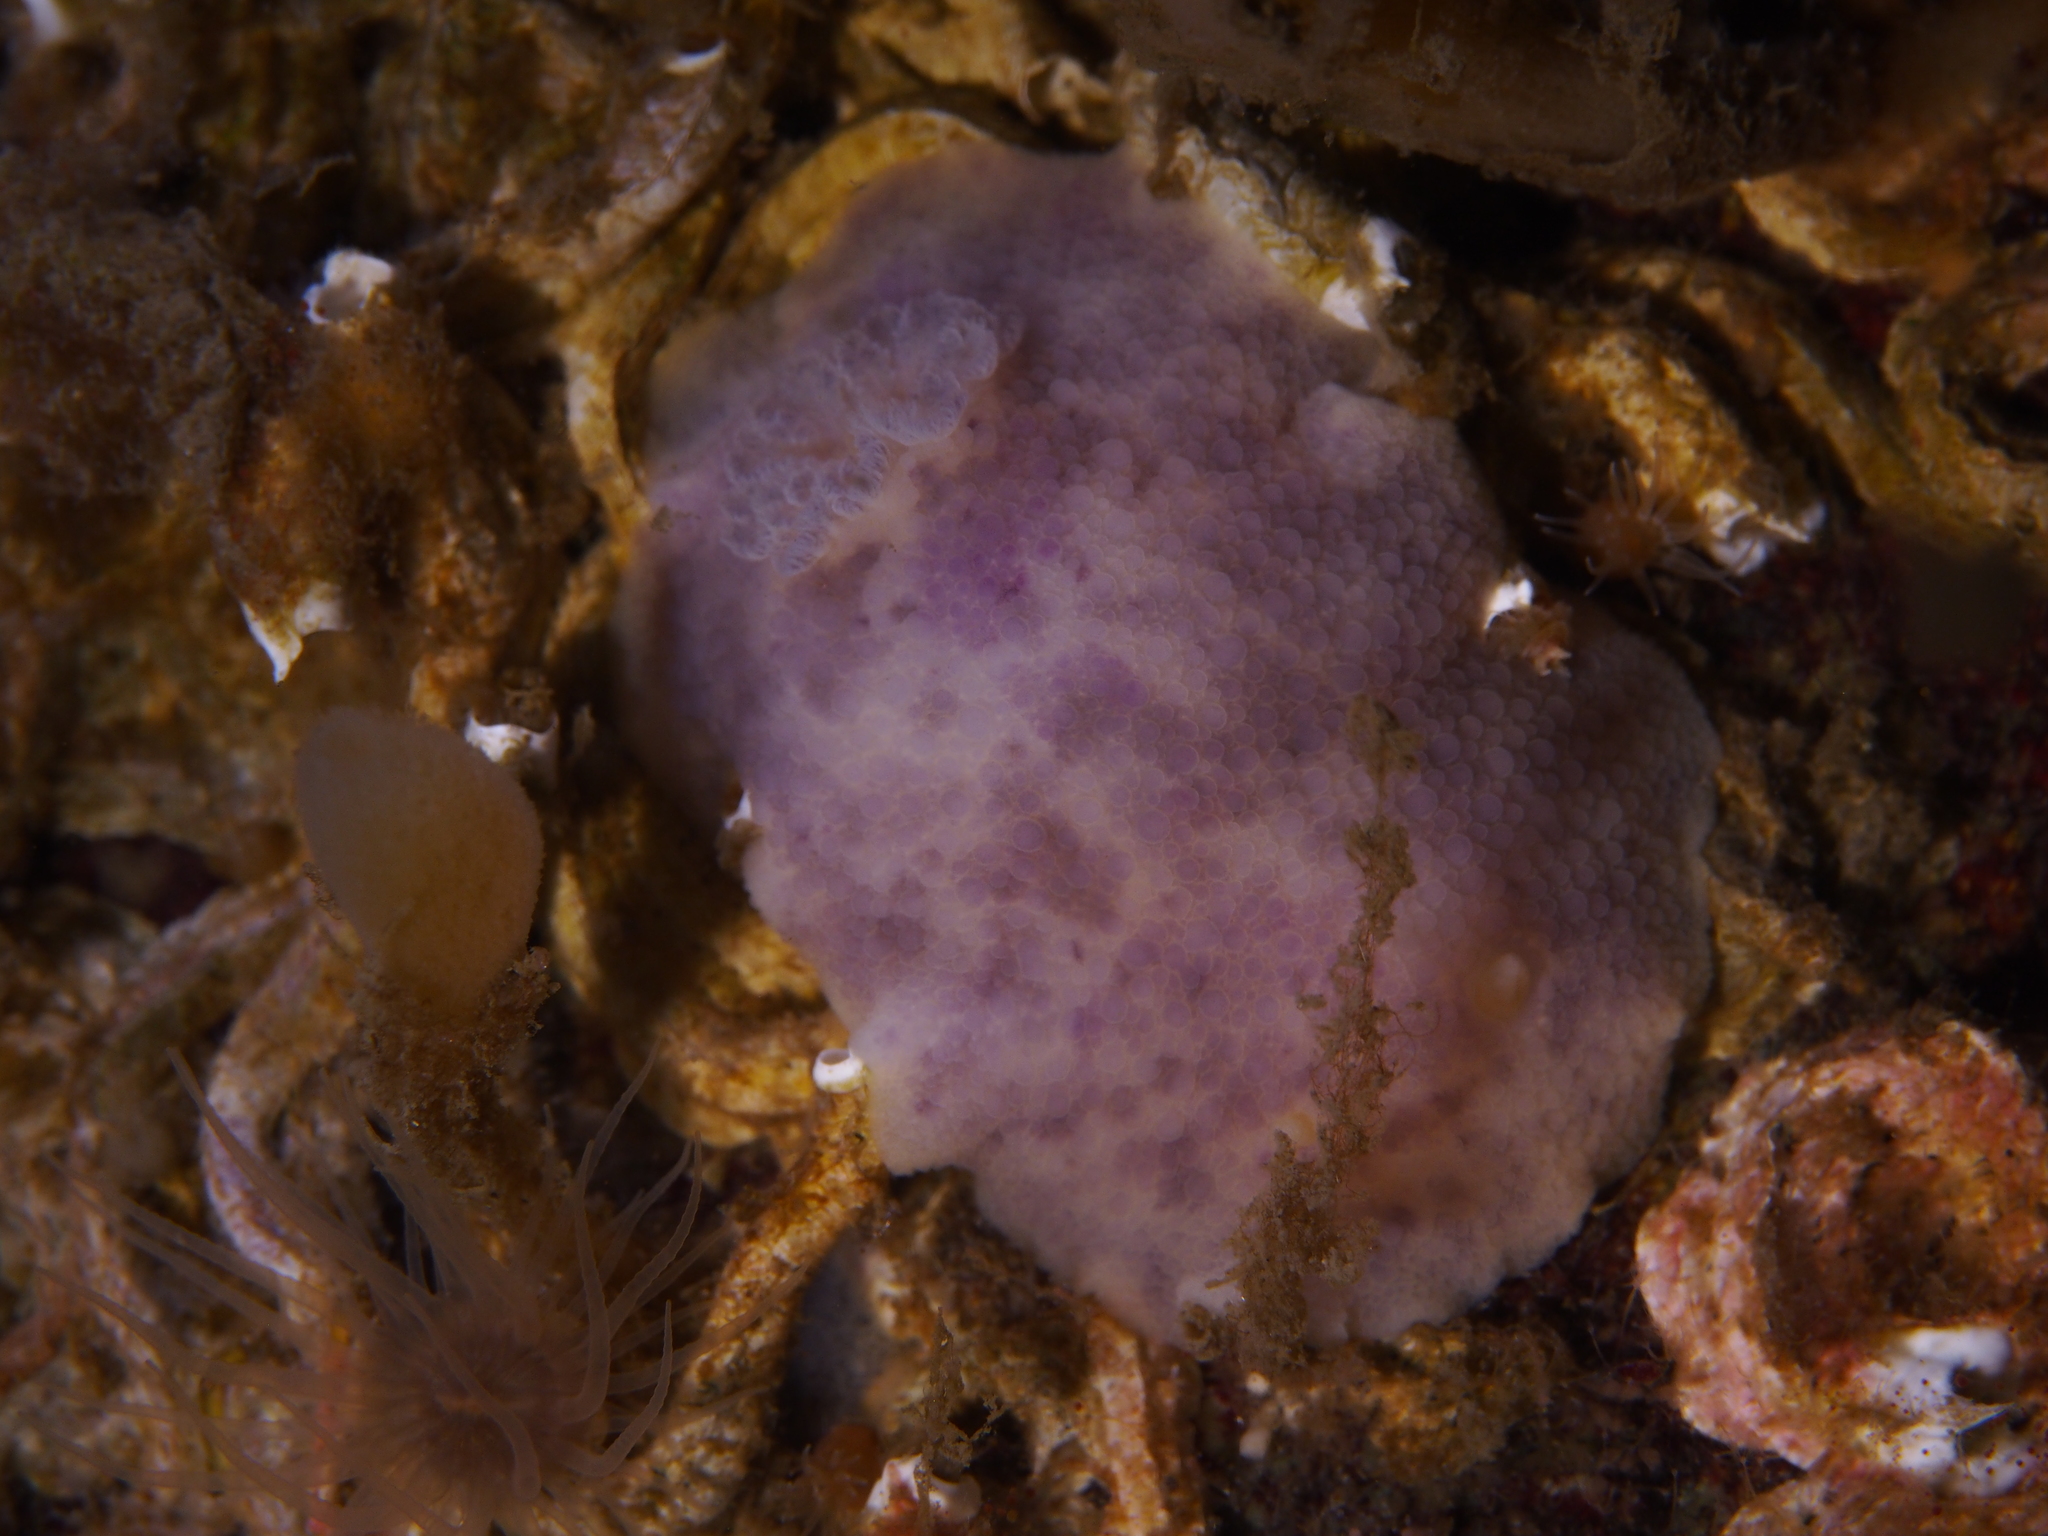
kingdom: Animalia
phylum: Mollusca
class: Gastropoda
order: Nudibranchia
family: Dorididae
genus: Doris
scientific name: Doris pseudoargus
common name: Sea lemon
